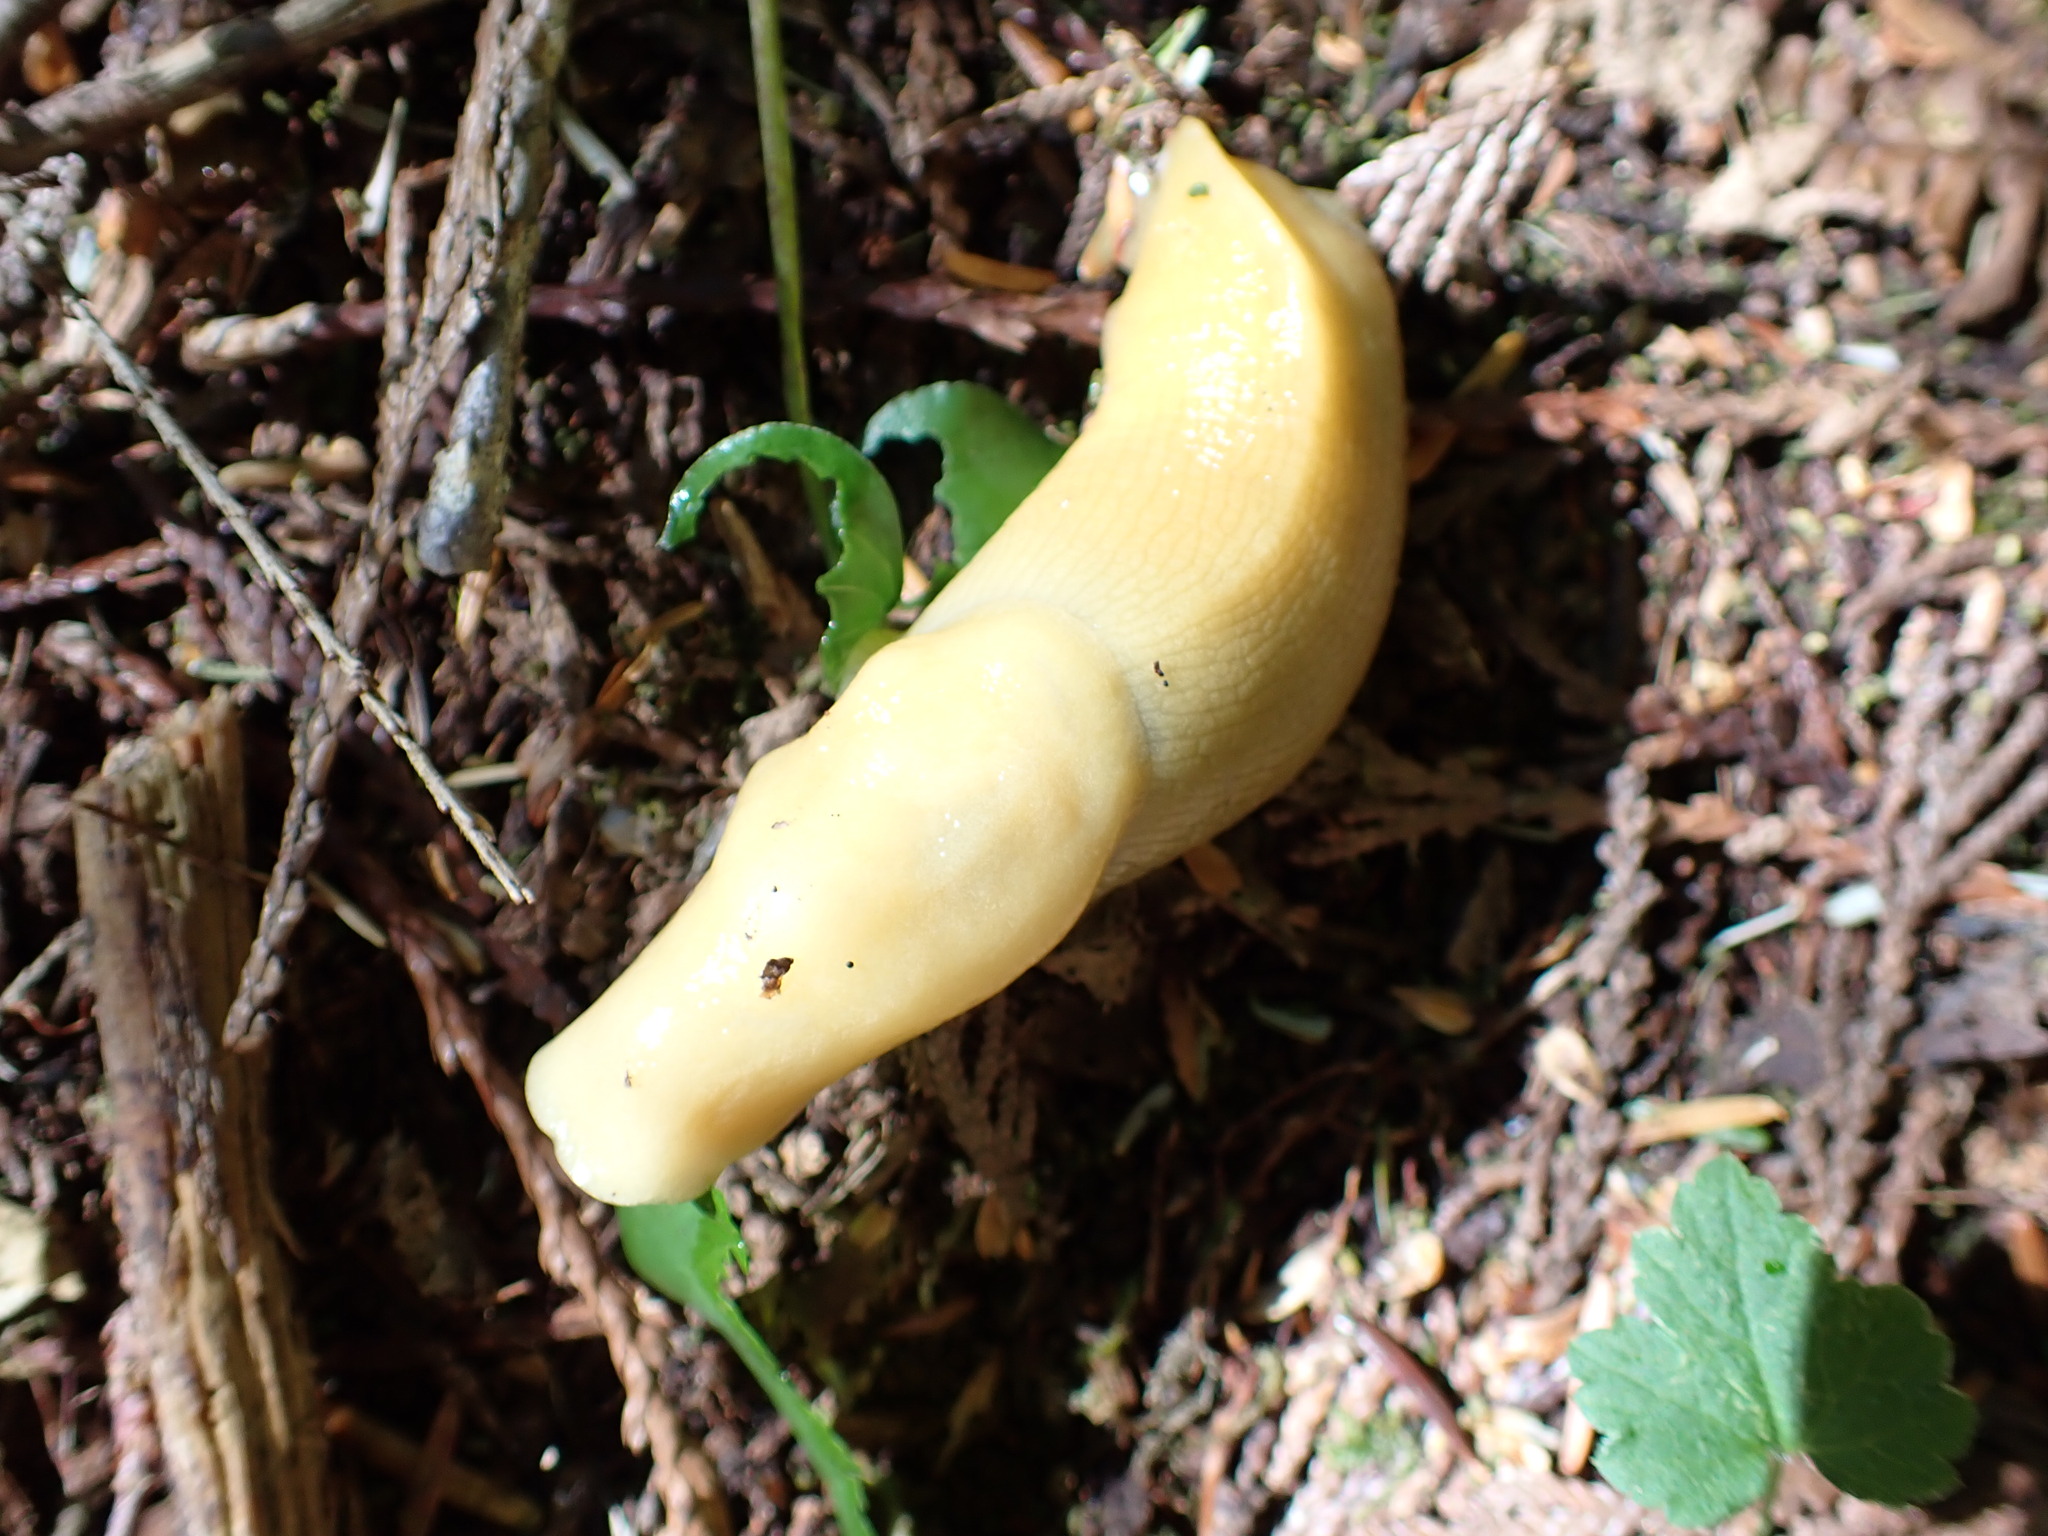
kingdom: Animalia
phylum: Mollusca
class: Gastropoda
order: Stylommatophora
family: Ariolimacidae
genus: Ariolimax
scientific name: Ariolimax columbianus
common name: Pacific banana slug
